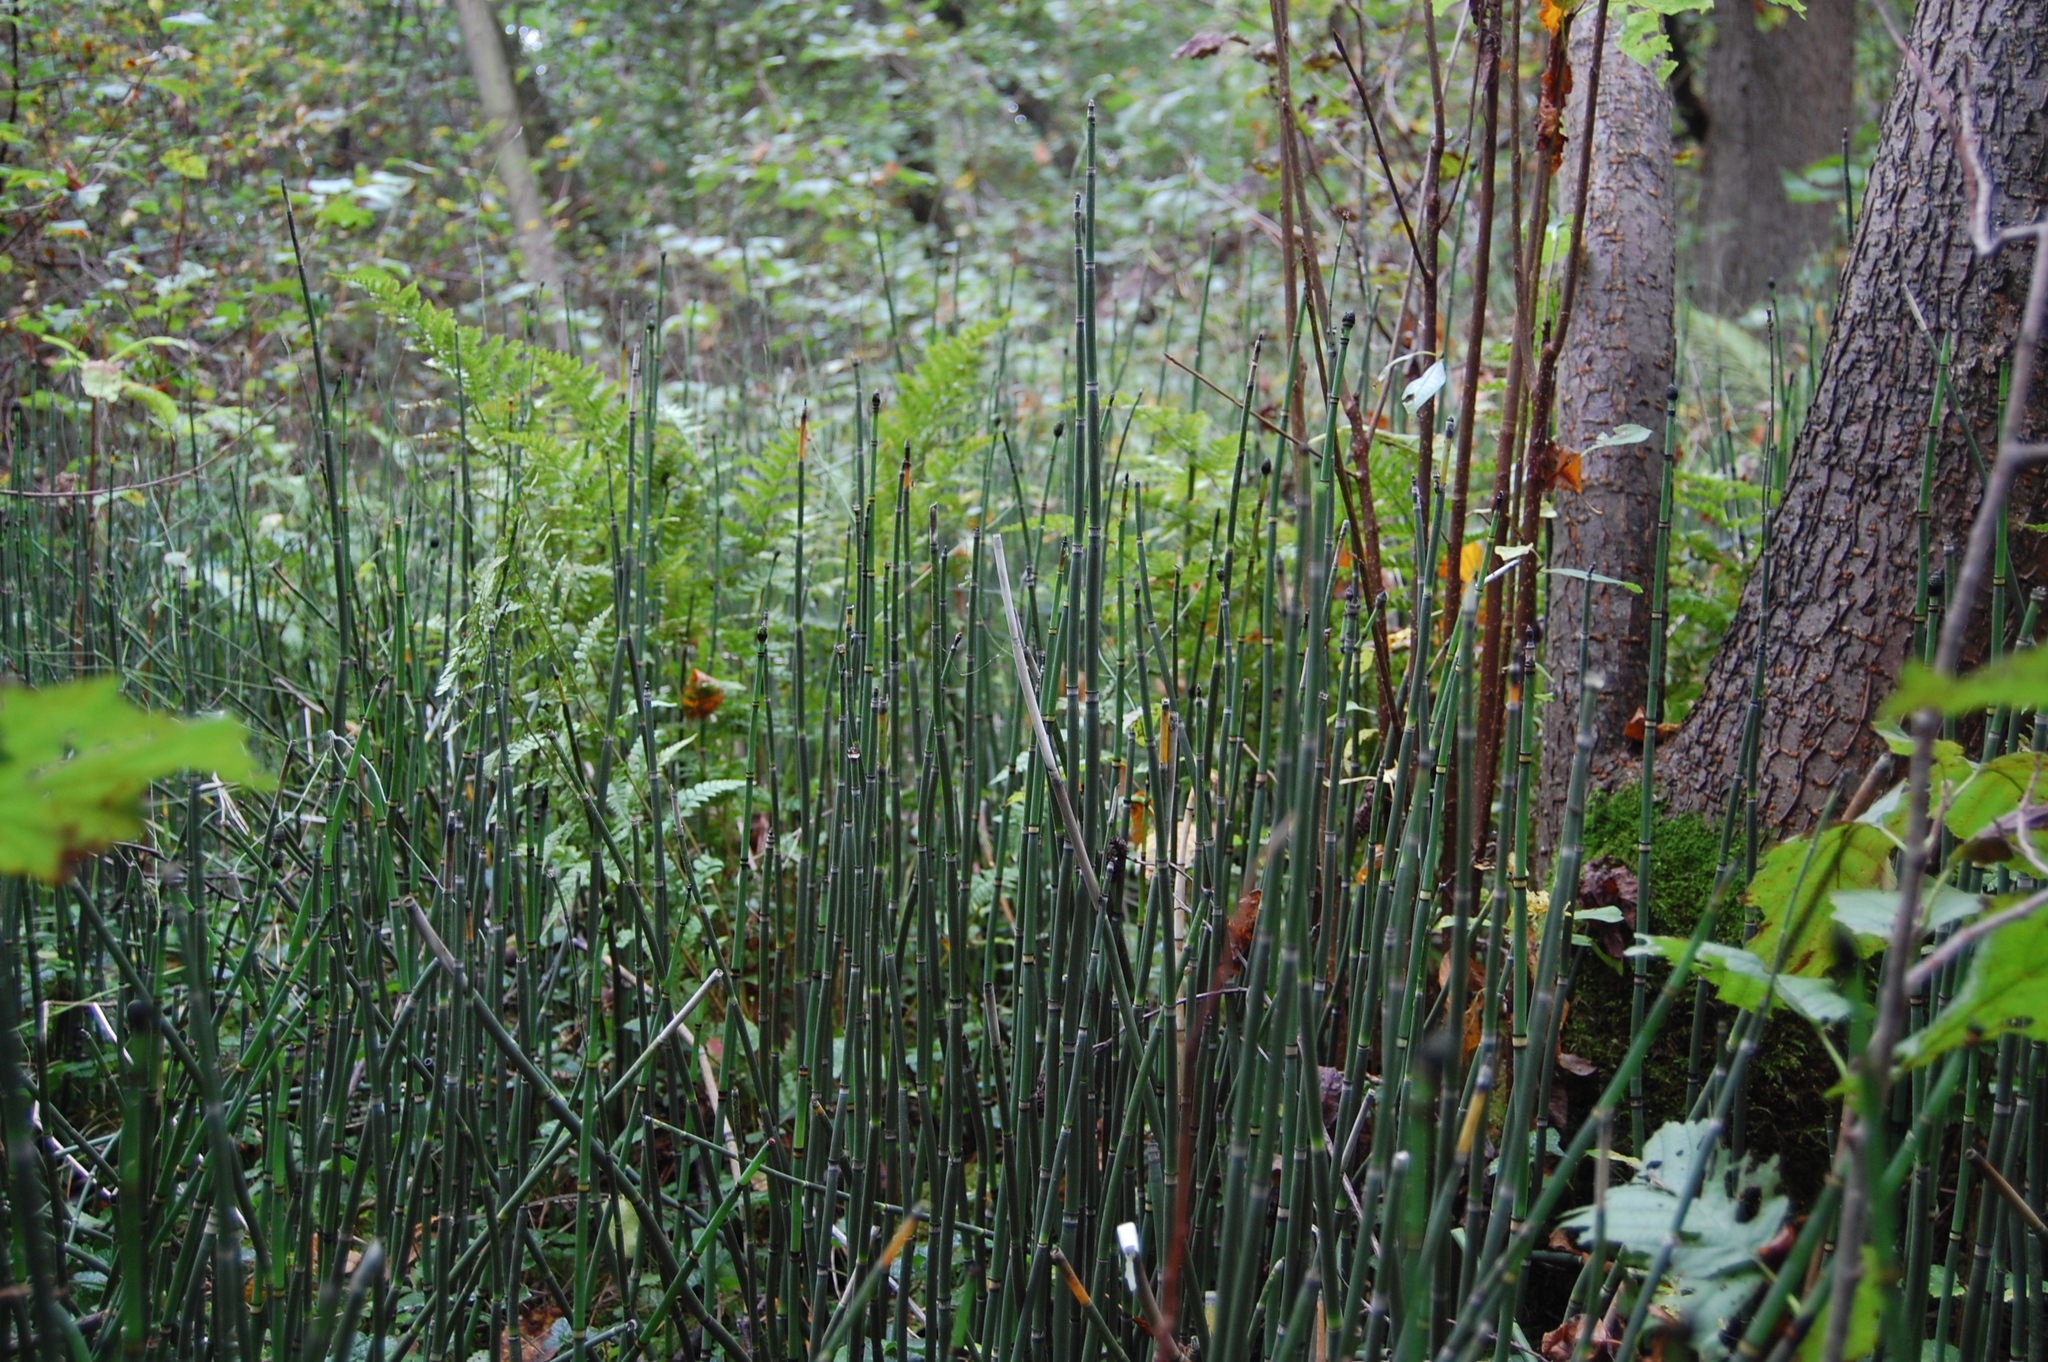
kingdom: Plantae
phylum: Tracheophyta
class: Polypodiopsida
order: Equisetales
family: Equisetaceae
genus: Equisetum
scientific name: Equisetum hyemale
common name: Rough horsetail
